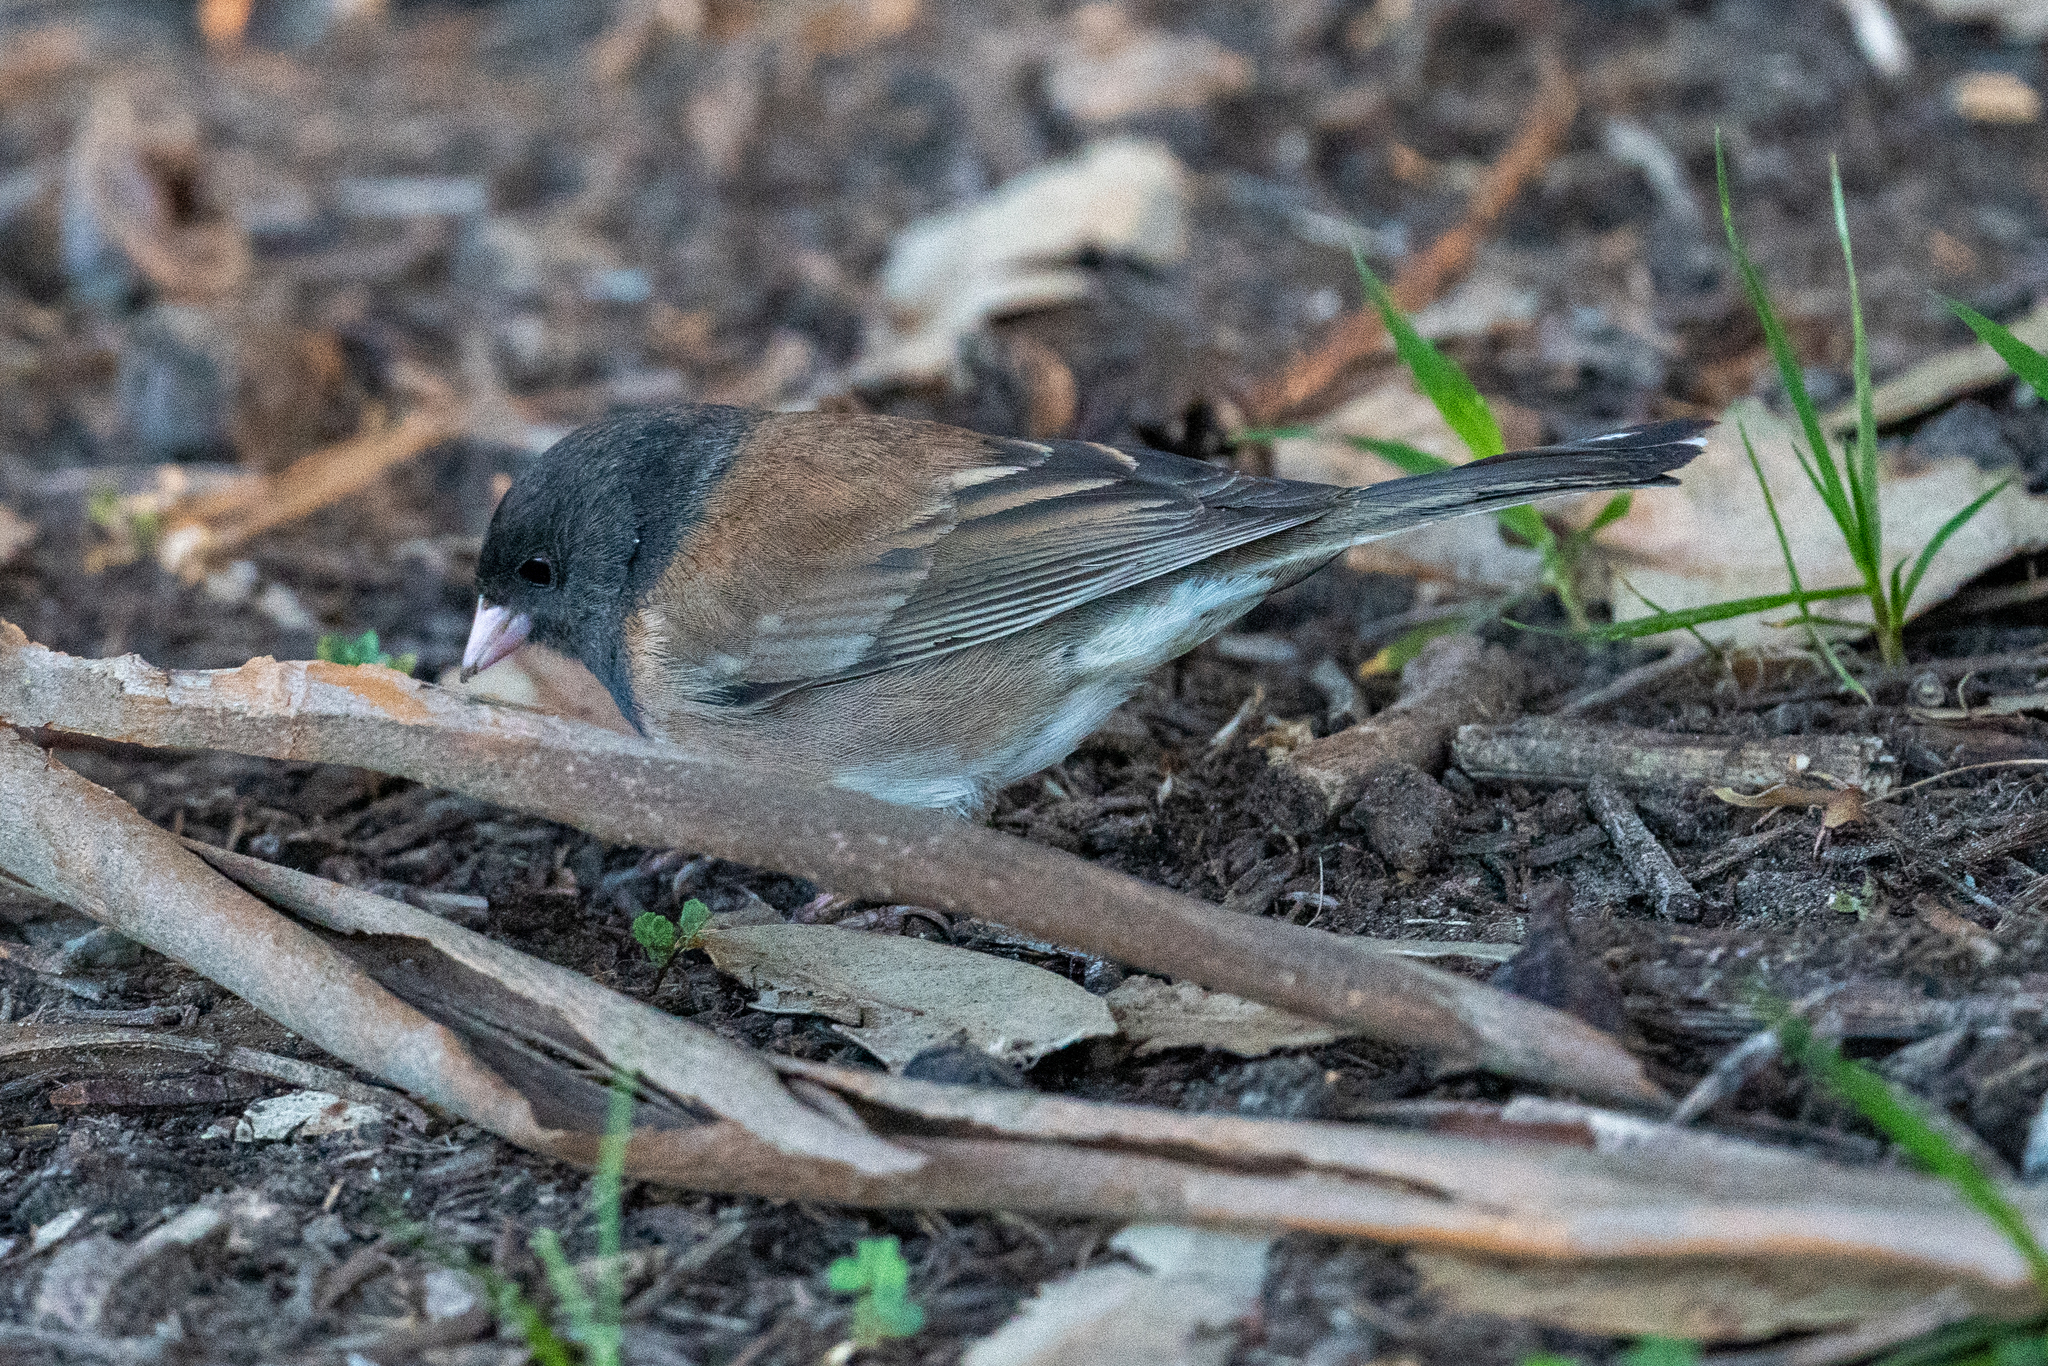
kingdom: Animalia
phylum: Chordata
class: Aves
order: Passeriformes
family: Passerellidae
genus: Junco
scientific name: Junco hyemalis
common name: Dark-eyed junco
